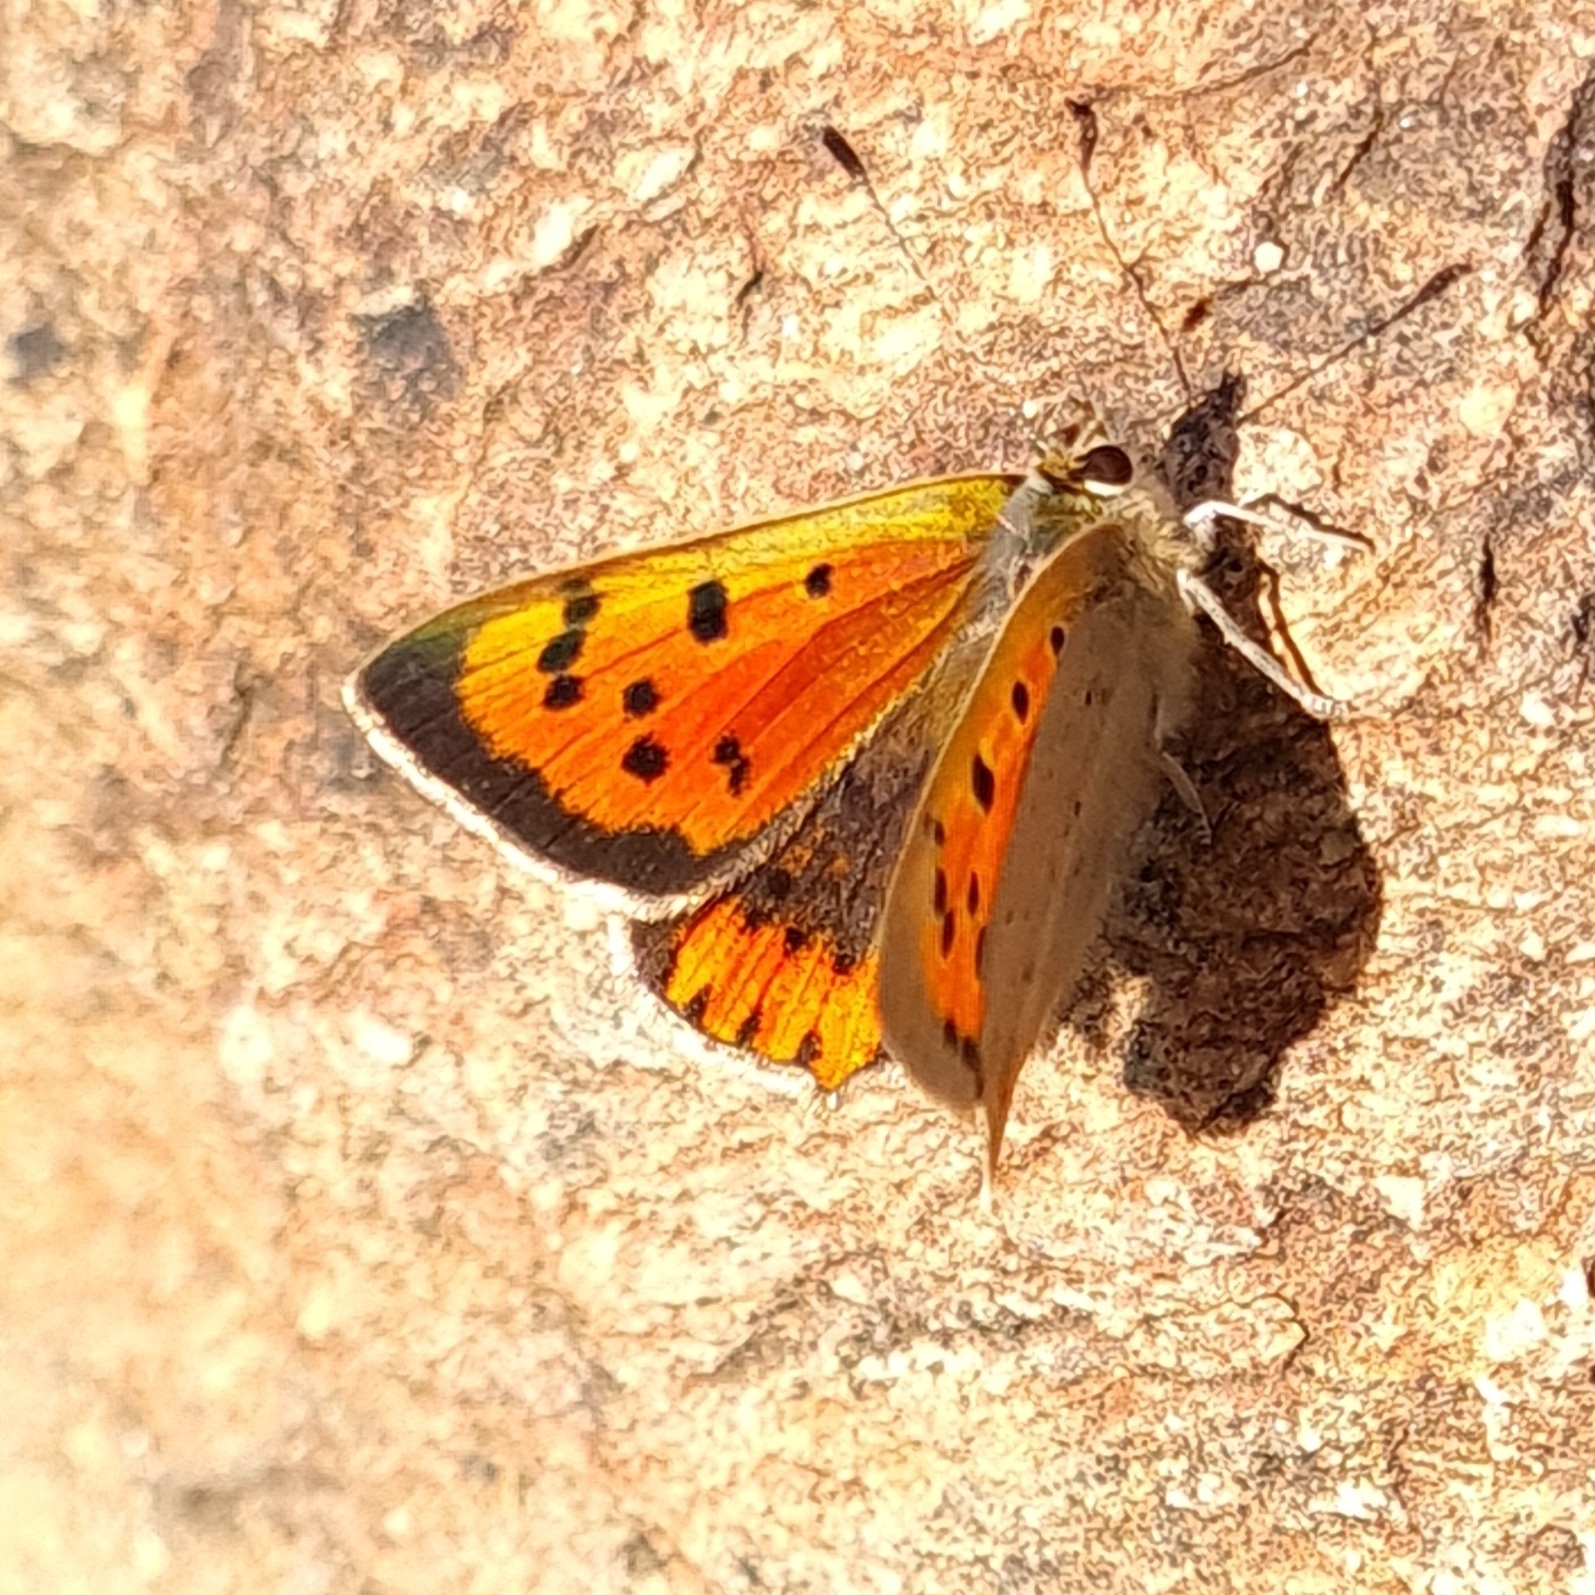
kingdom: Animalia
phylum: Arthropoda
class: Insecta
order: Lepidoptera
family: Lycaenidae
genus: Lycaena
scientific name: Lycaena phlaeas
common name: Small copper
